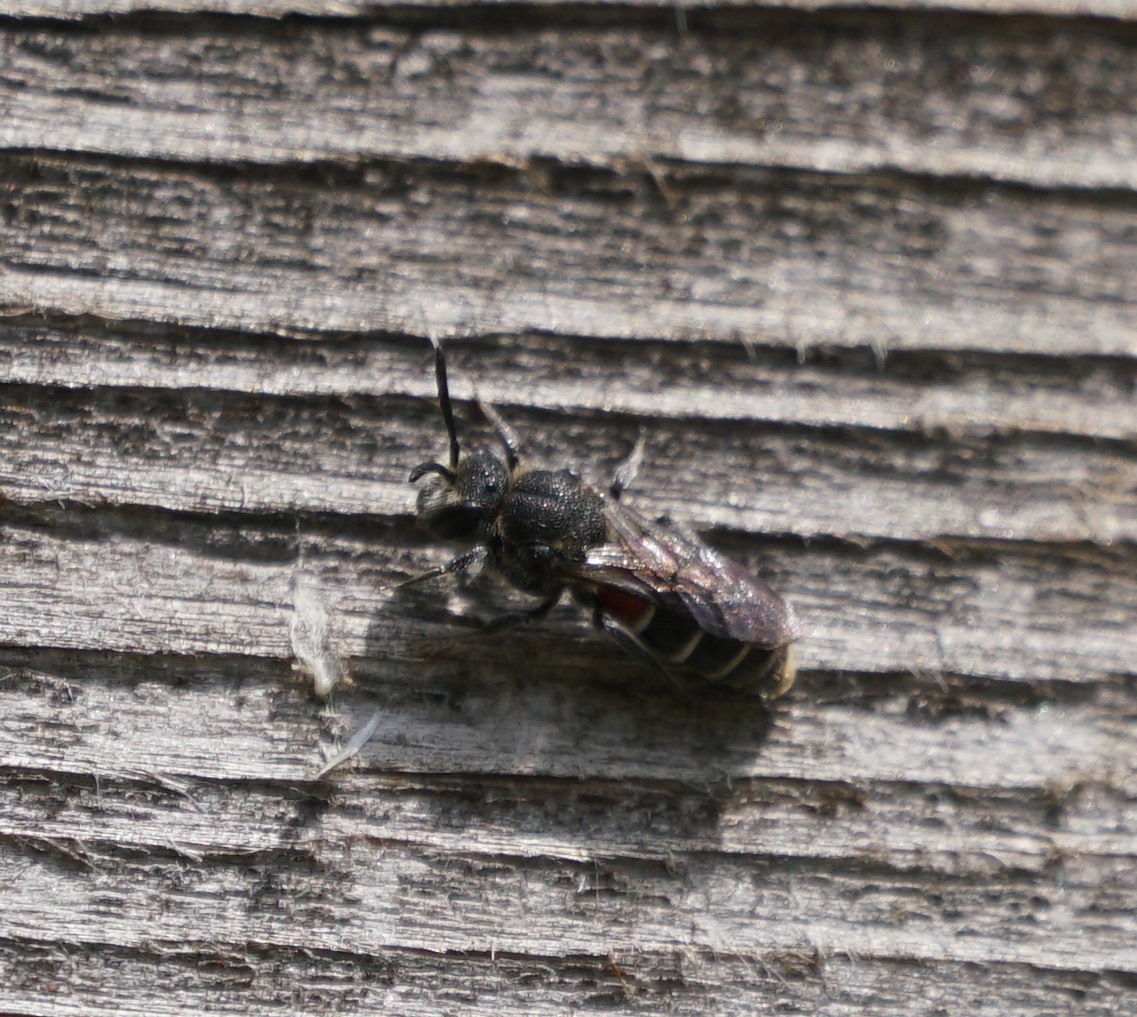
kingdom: Animalia
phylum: Arthropoda
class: Insecta
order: Hymenoptera
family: Megachilidae
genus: Dioxys
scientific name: Dioxys cinctus
